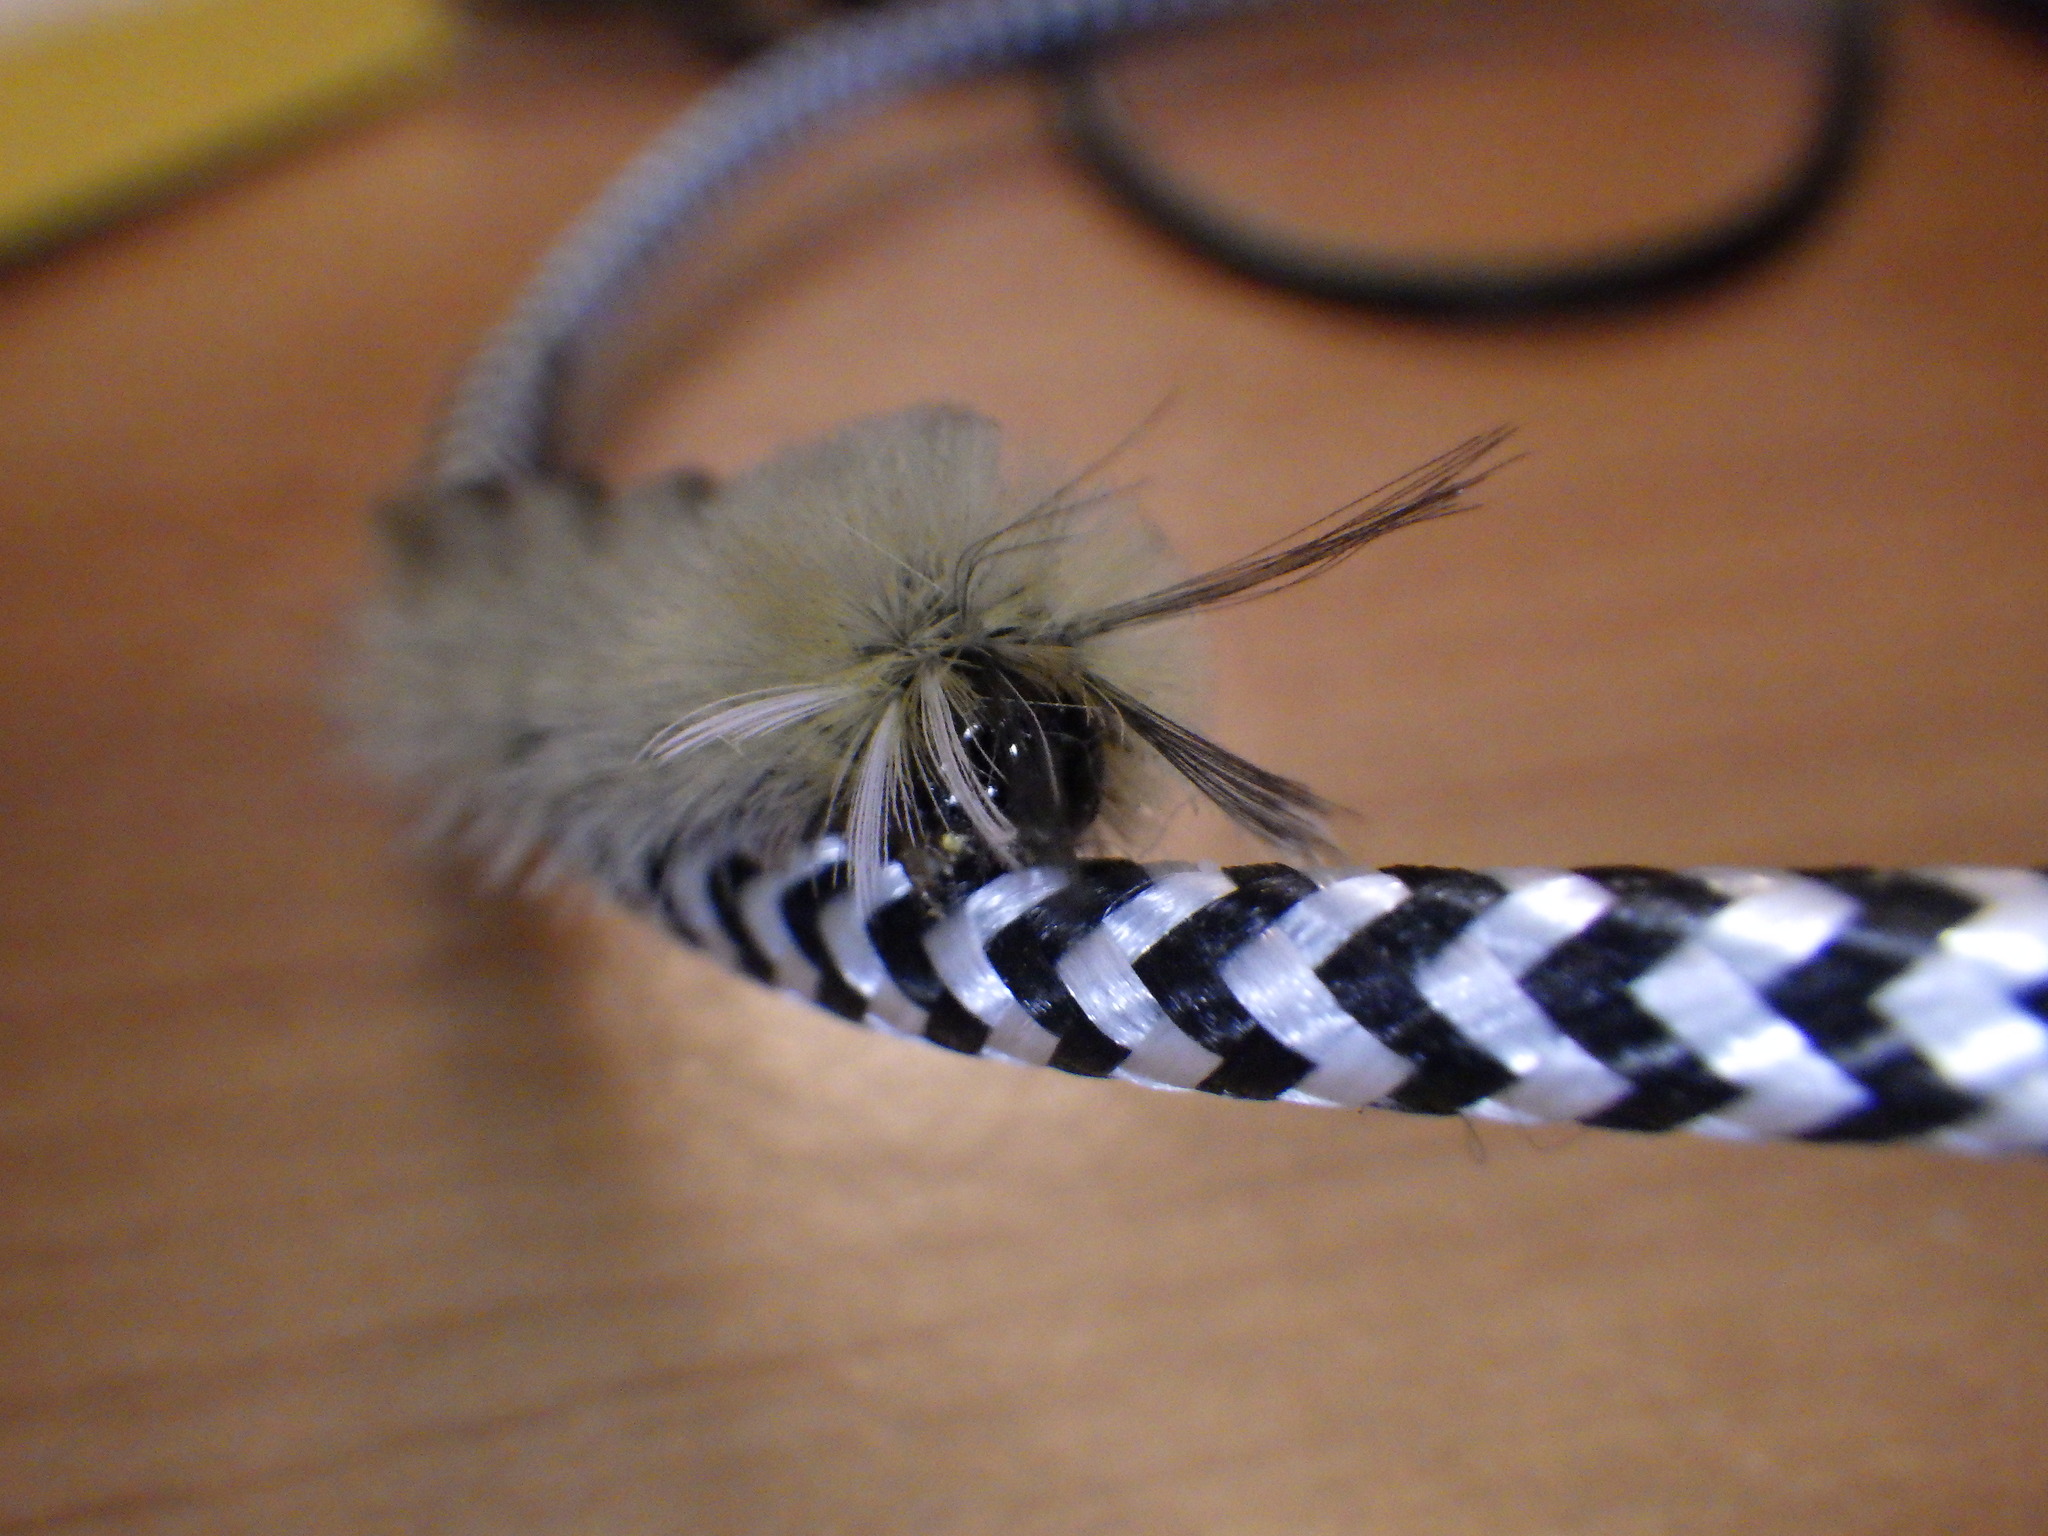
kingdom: Animalia
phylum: Arthropoda
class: Insecta
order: Lepidoptera
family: Erebidae
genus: Halysidota
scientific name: Halysidota tessellaris
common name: Banded tussock moth
